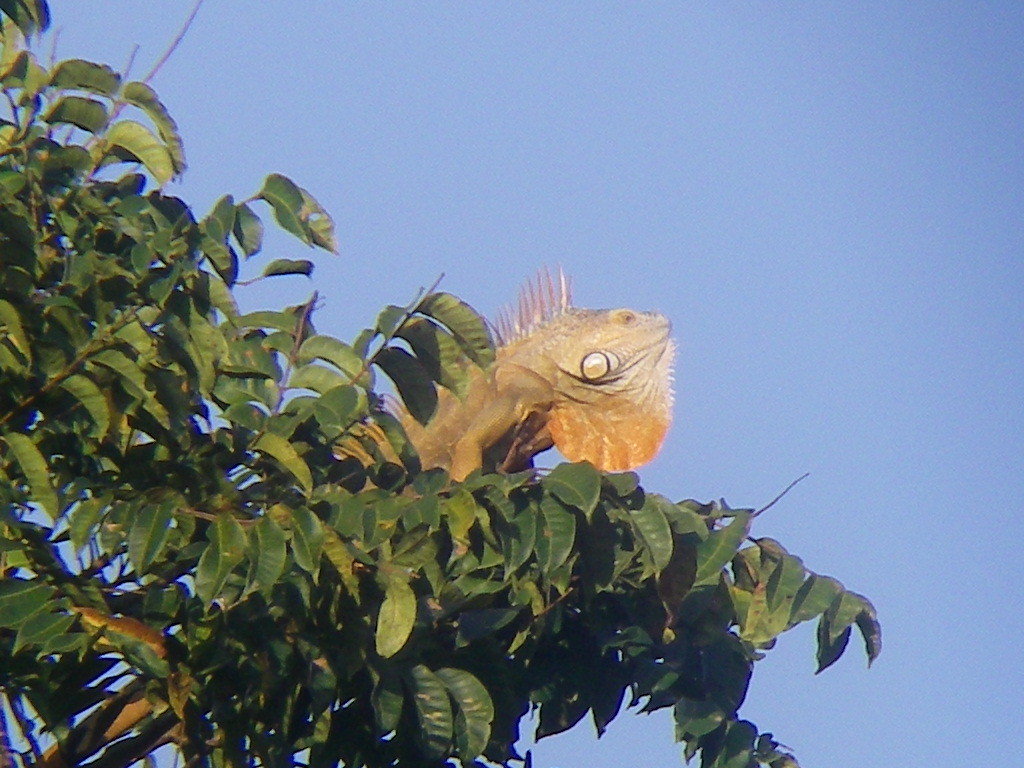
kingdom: Animalia
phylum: Chordata
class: Squamata
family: Iguanidae
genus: Iguana
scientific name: Iguana iguana
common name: Green iguana
